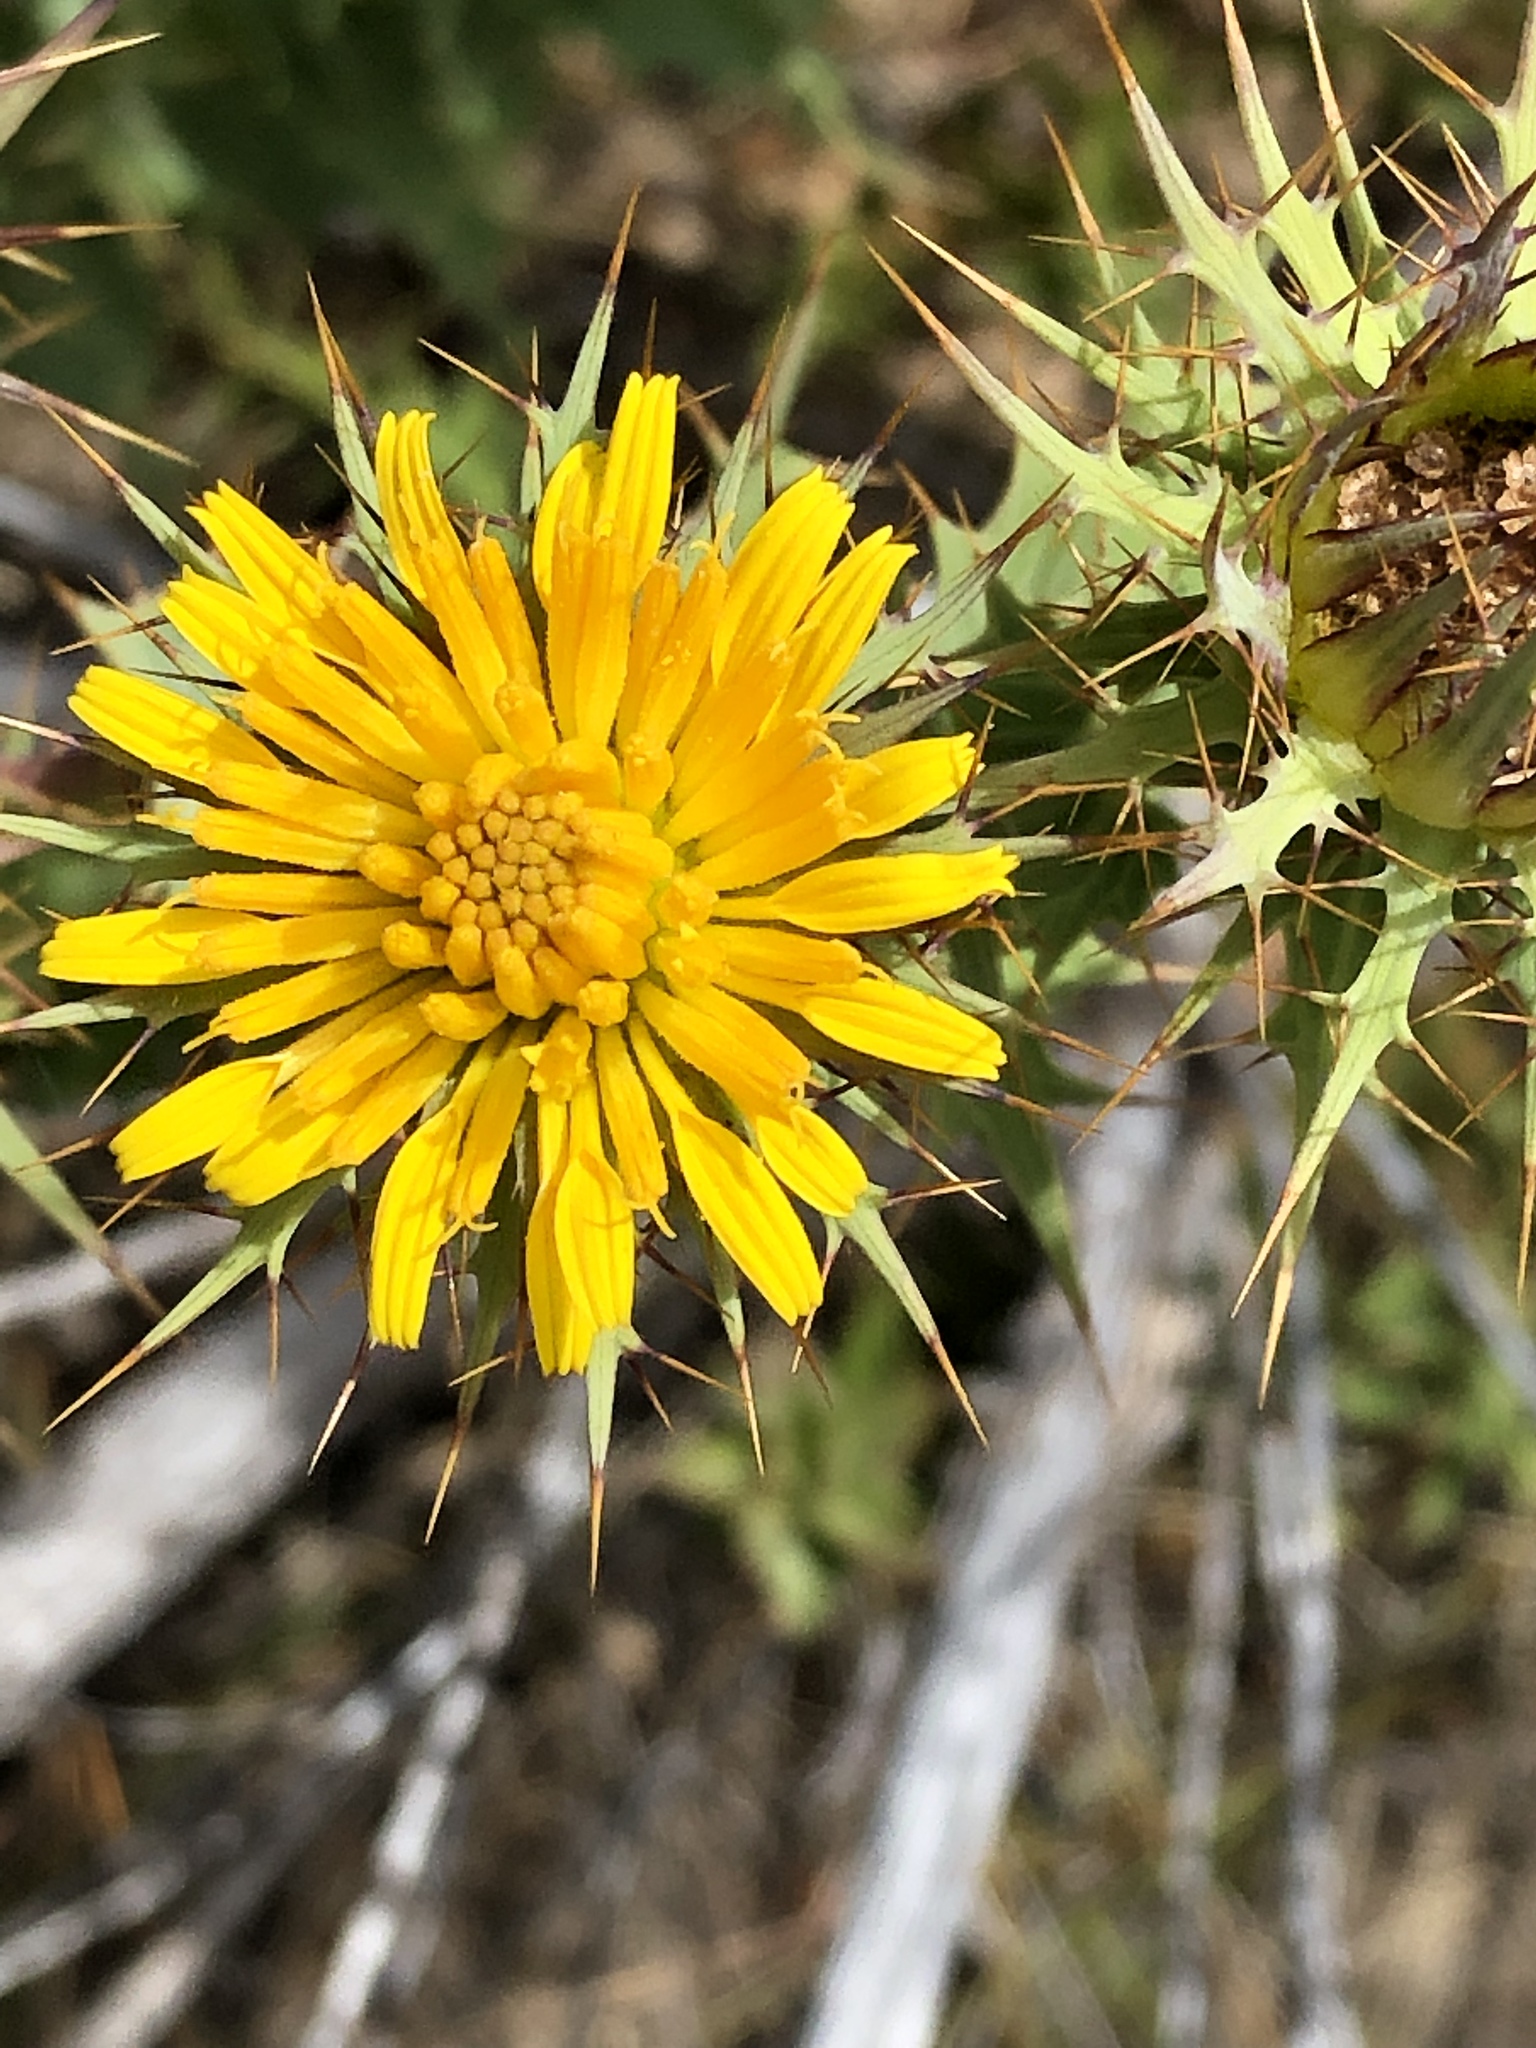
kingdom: Plantae
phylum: Tracheophyta
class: Magnoliopsida
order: Asterales
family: Asteraceae
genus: Berkheya
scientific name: Berkheya cruciata
